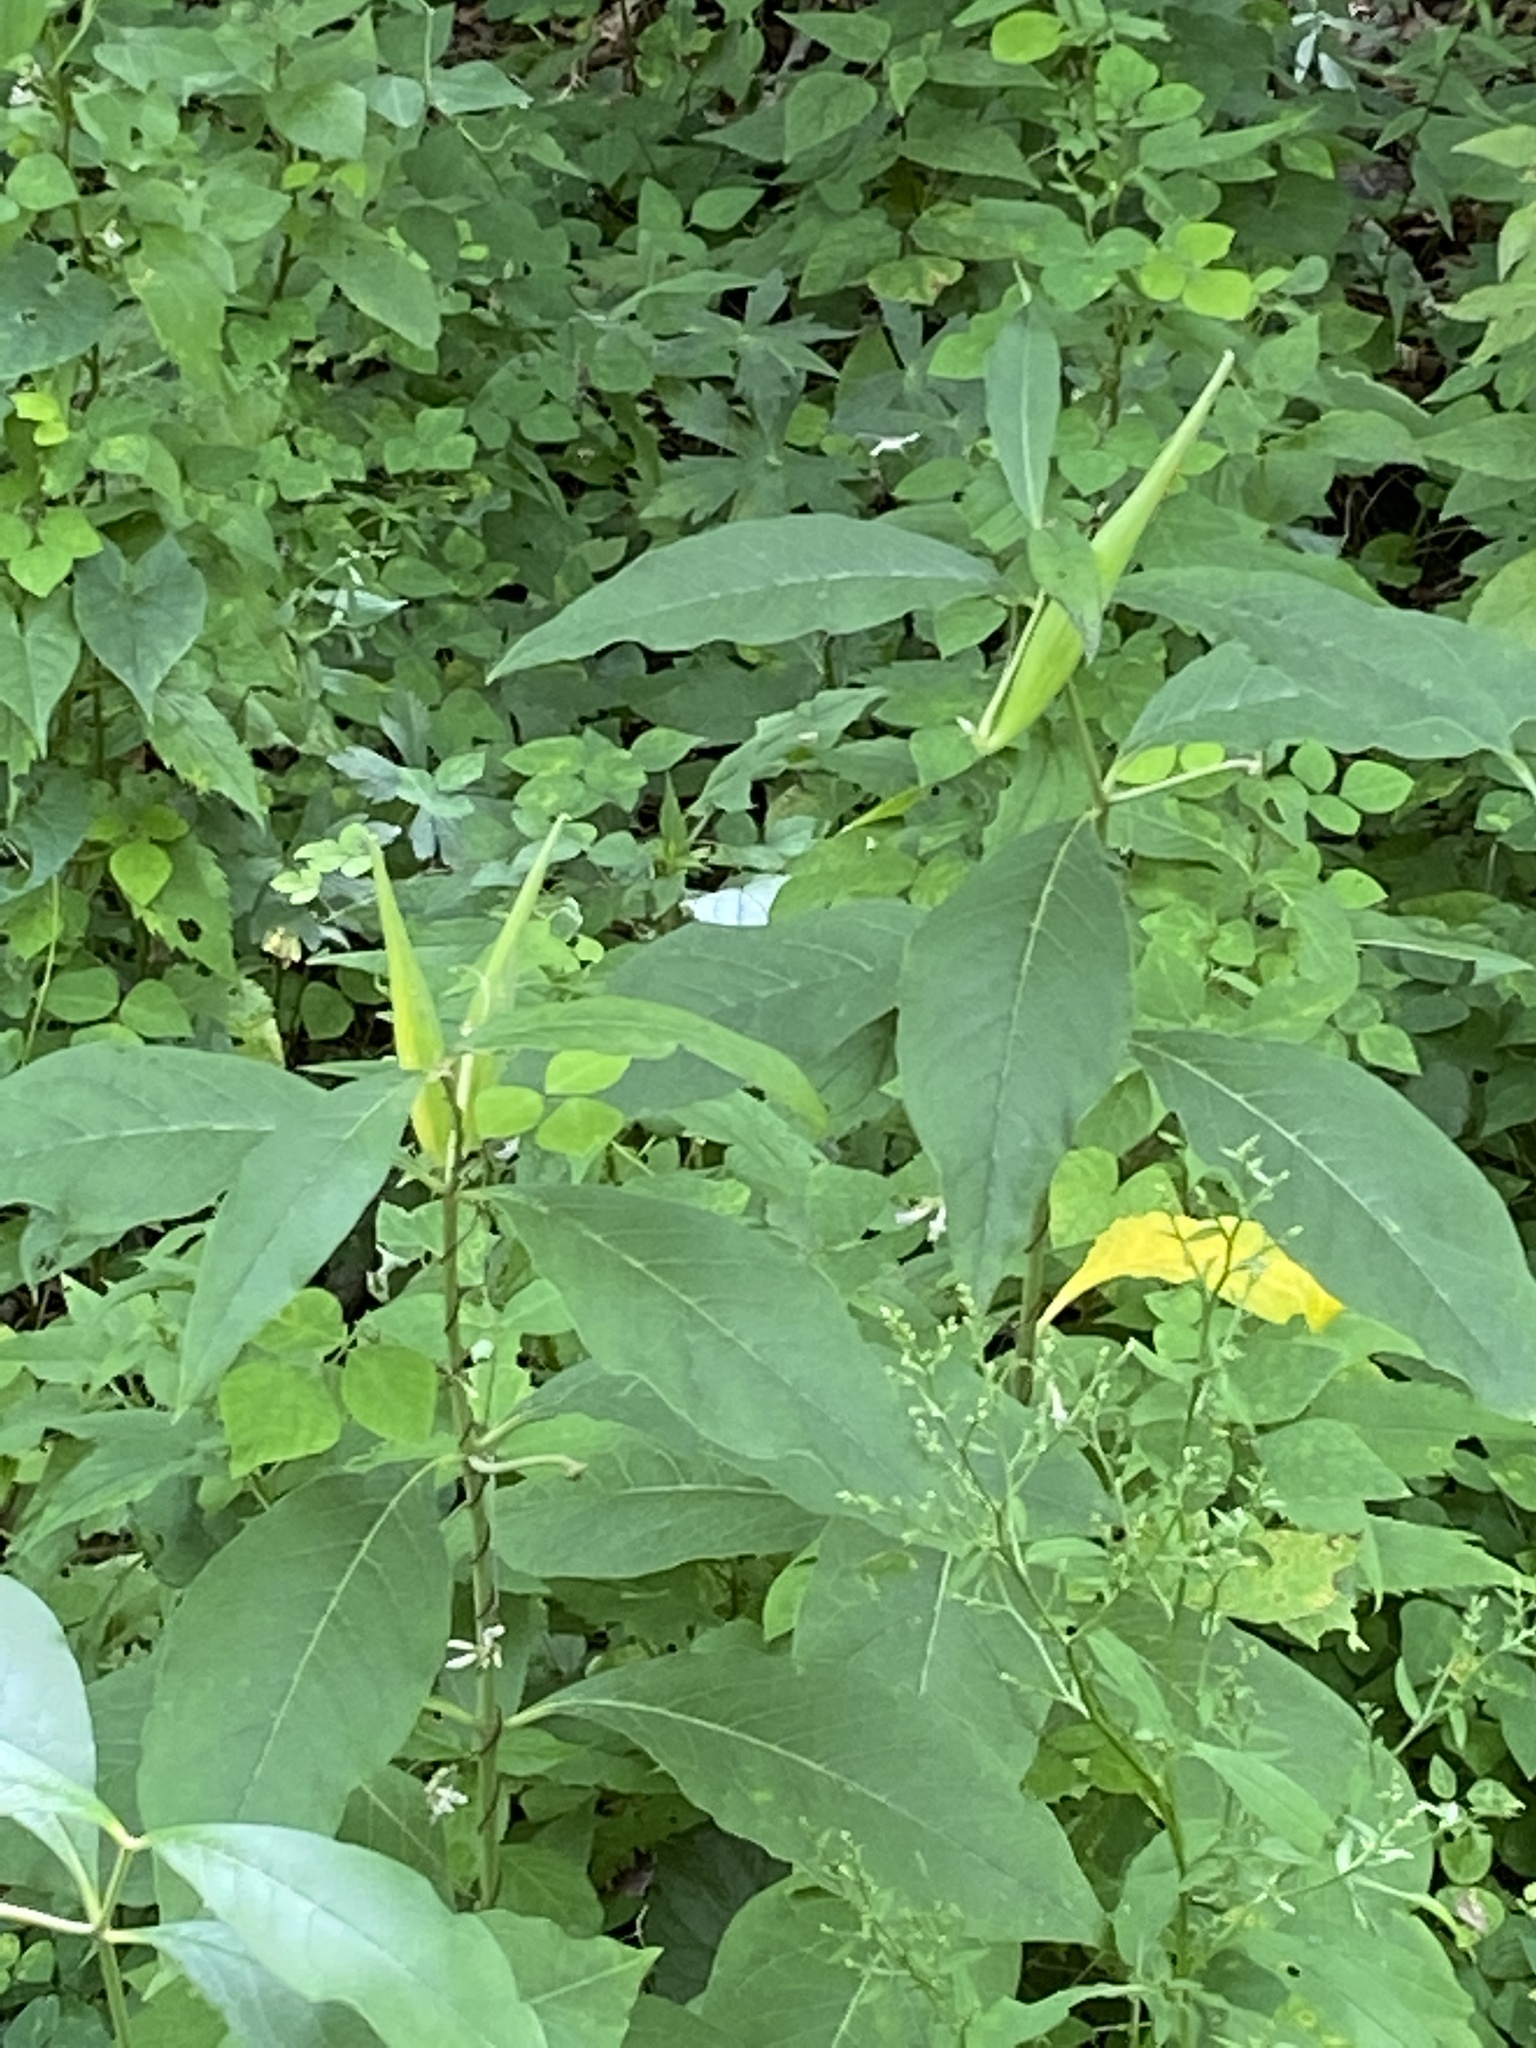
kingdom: Plantae
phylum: Tracheophyta
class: Magnoliopsida
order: Gentianales
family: Apocynaceae
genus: Asclepias
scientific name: Asclepias exaltata
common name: Poke milkweed
